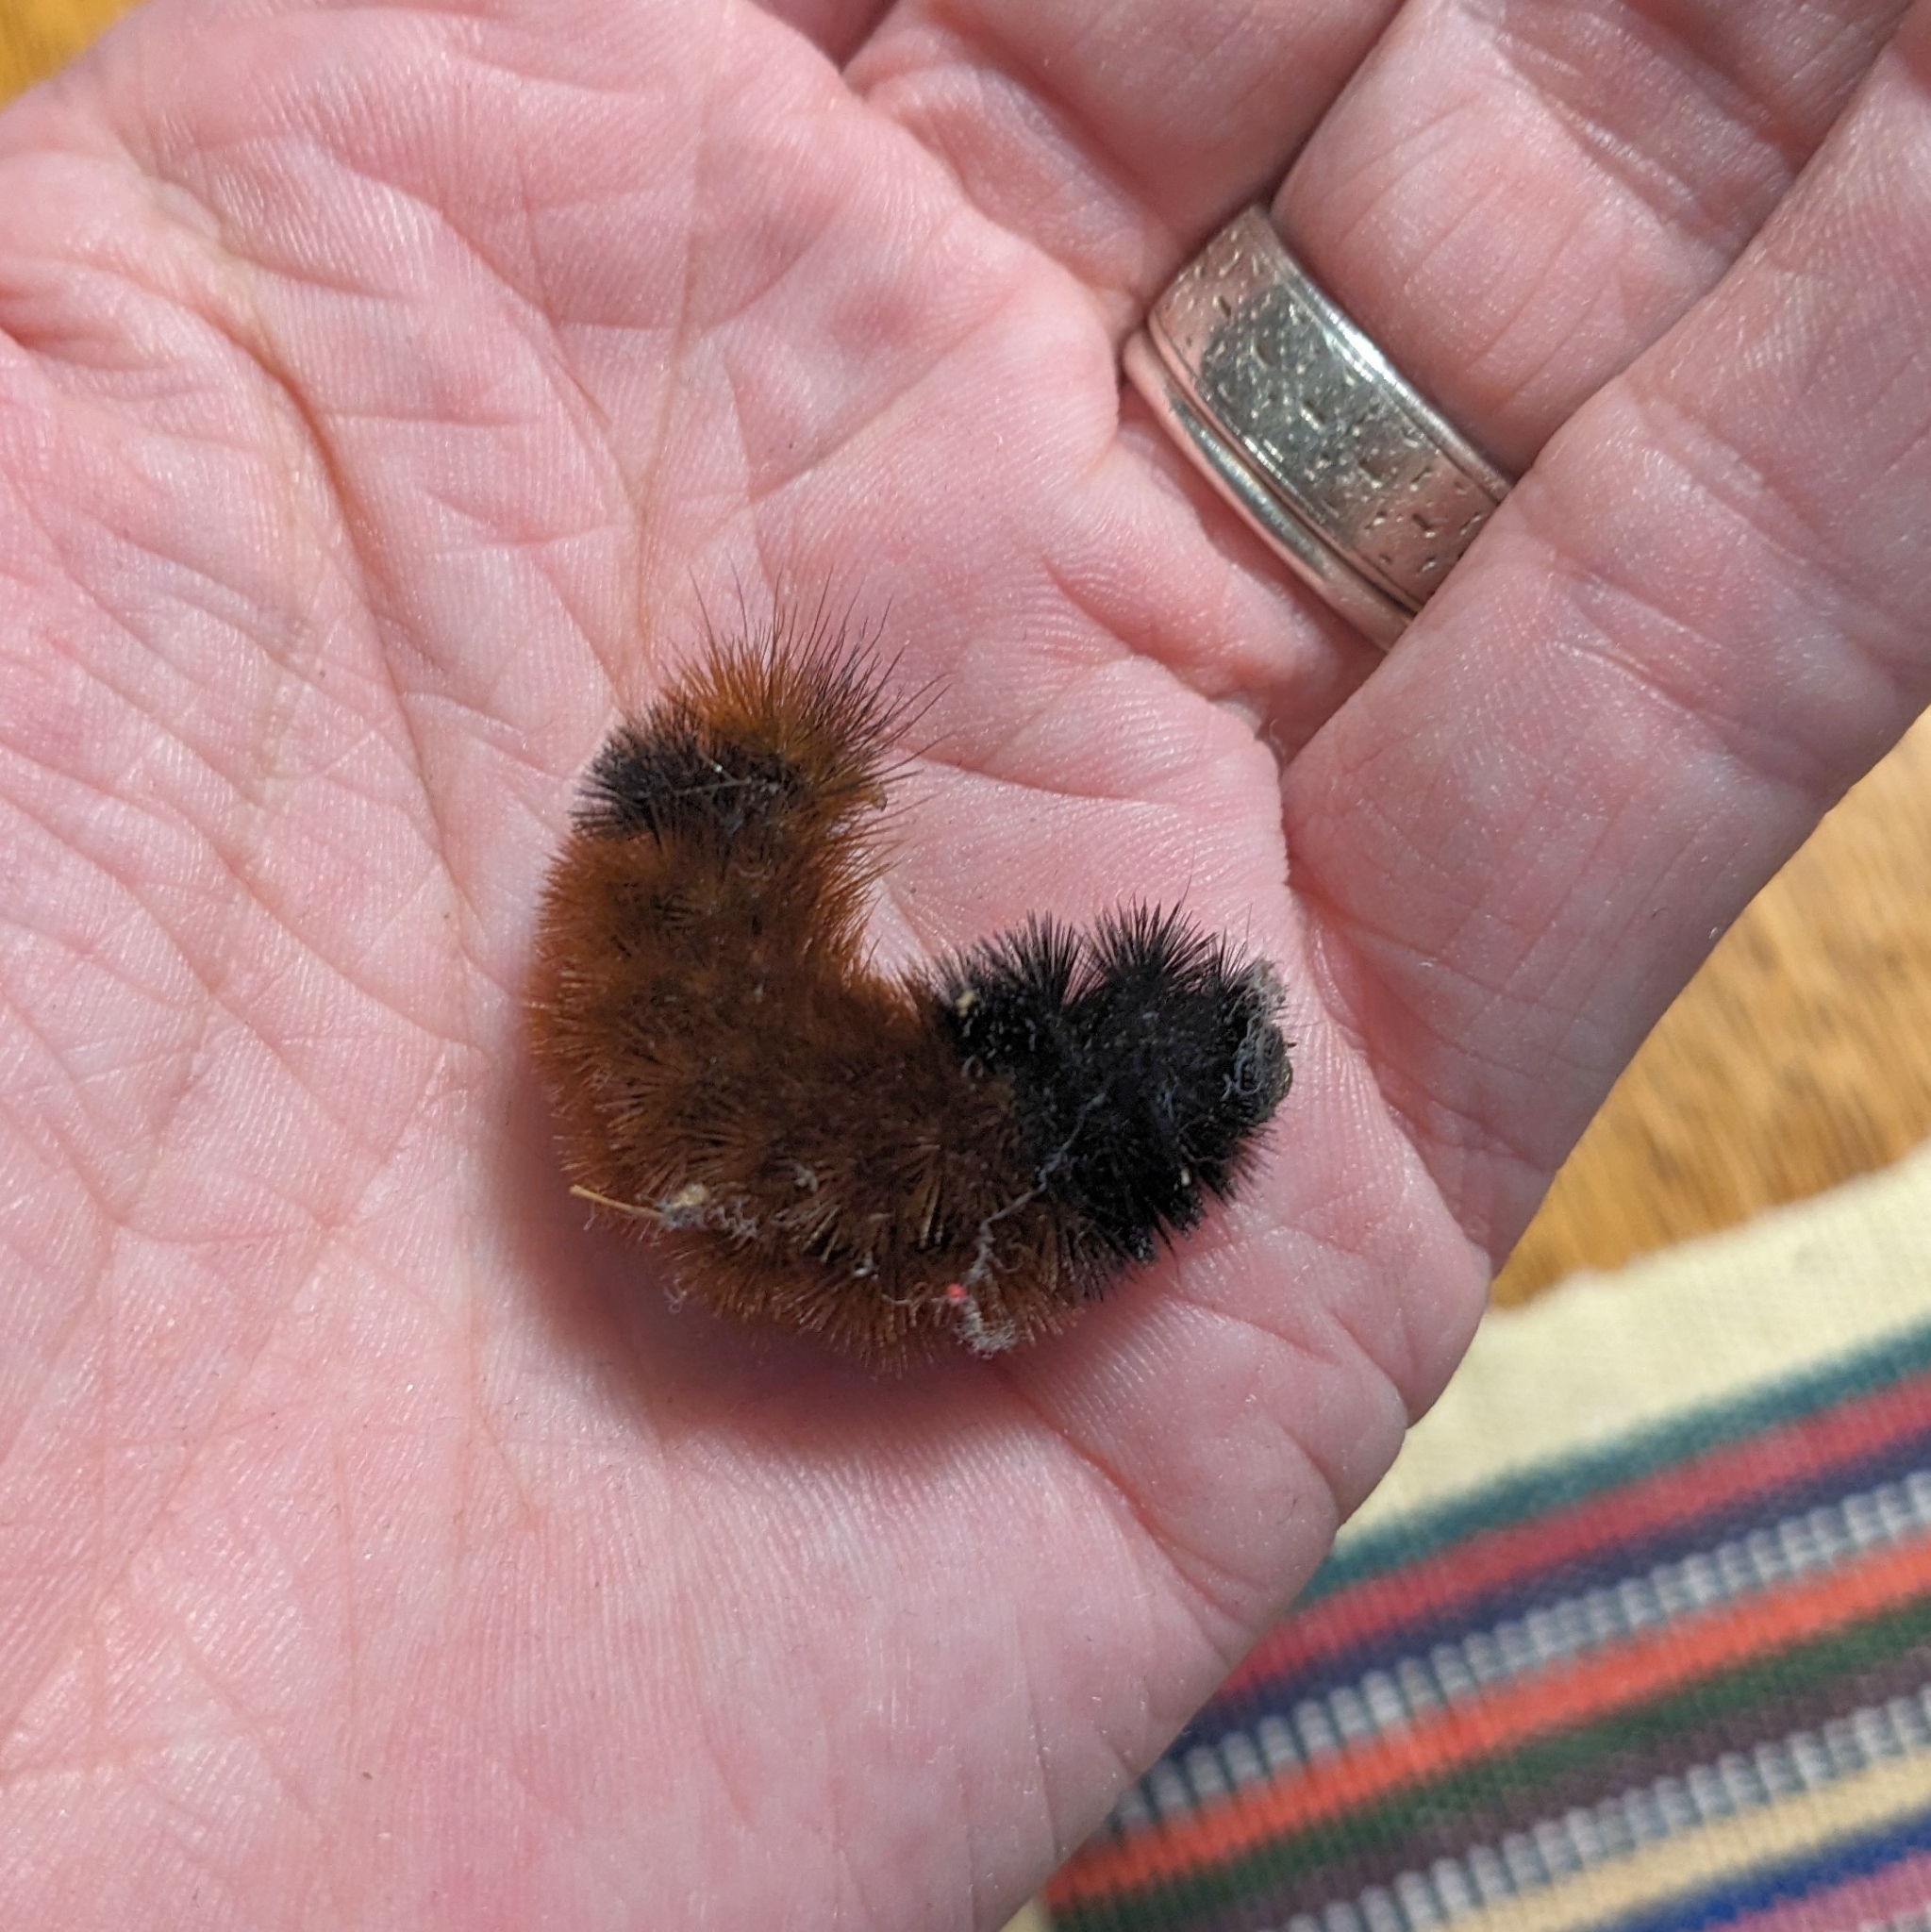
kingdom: Animalia
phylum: Arthropoda
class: Insecta
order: Lepidoptera
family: Erebidae
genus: Pyrrharctia
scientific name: Pyrrharctia isabella
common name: Isabella tiger moth
